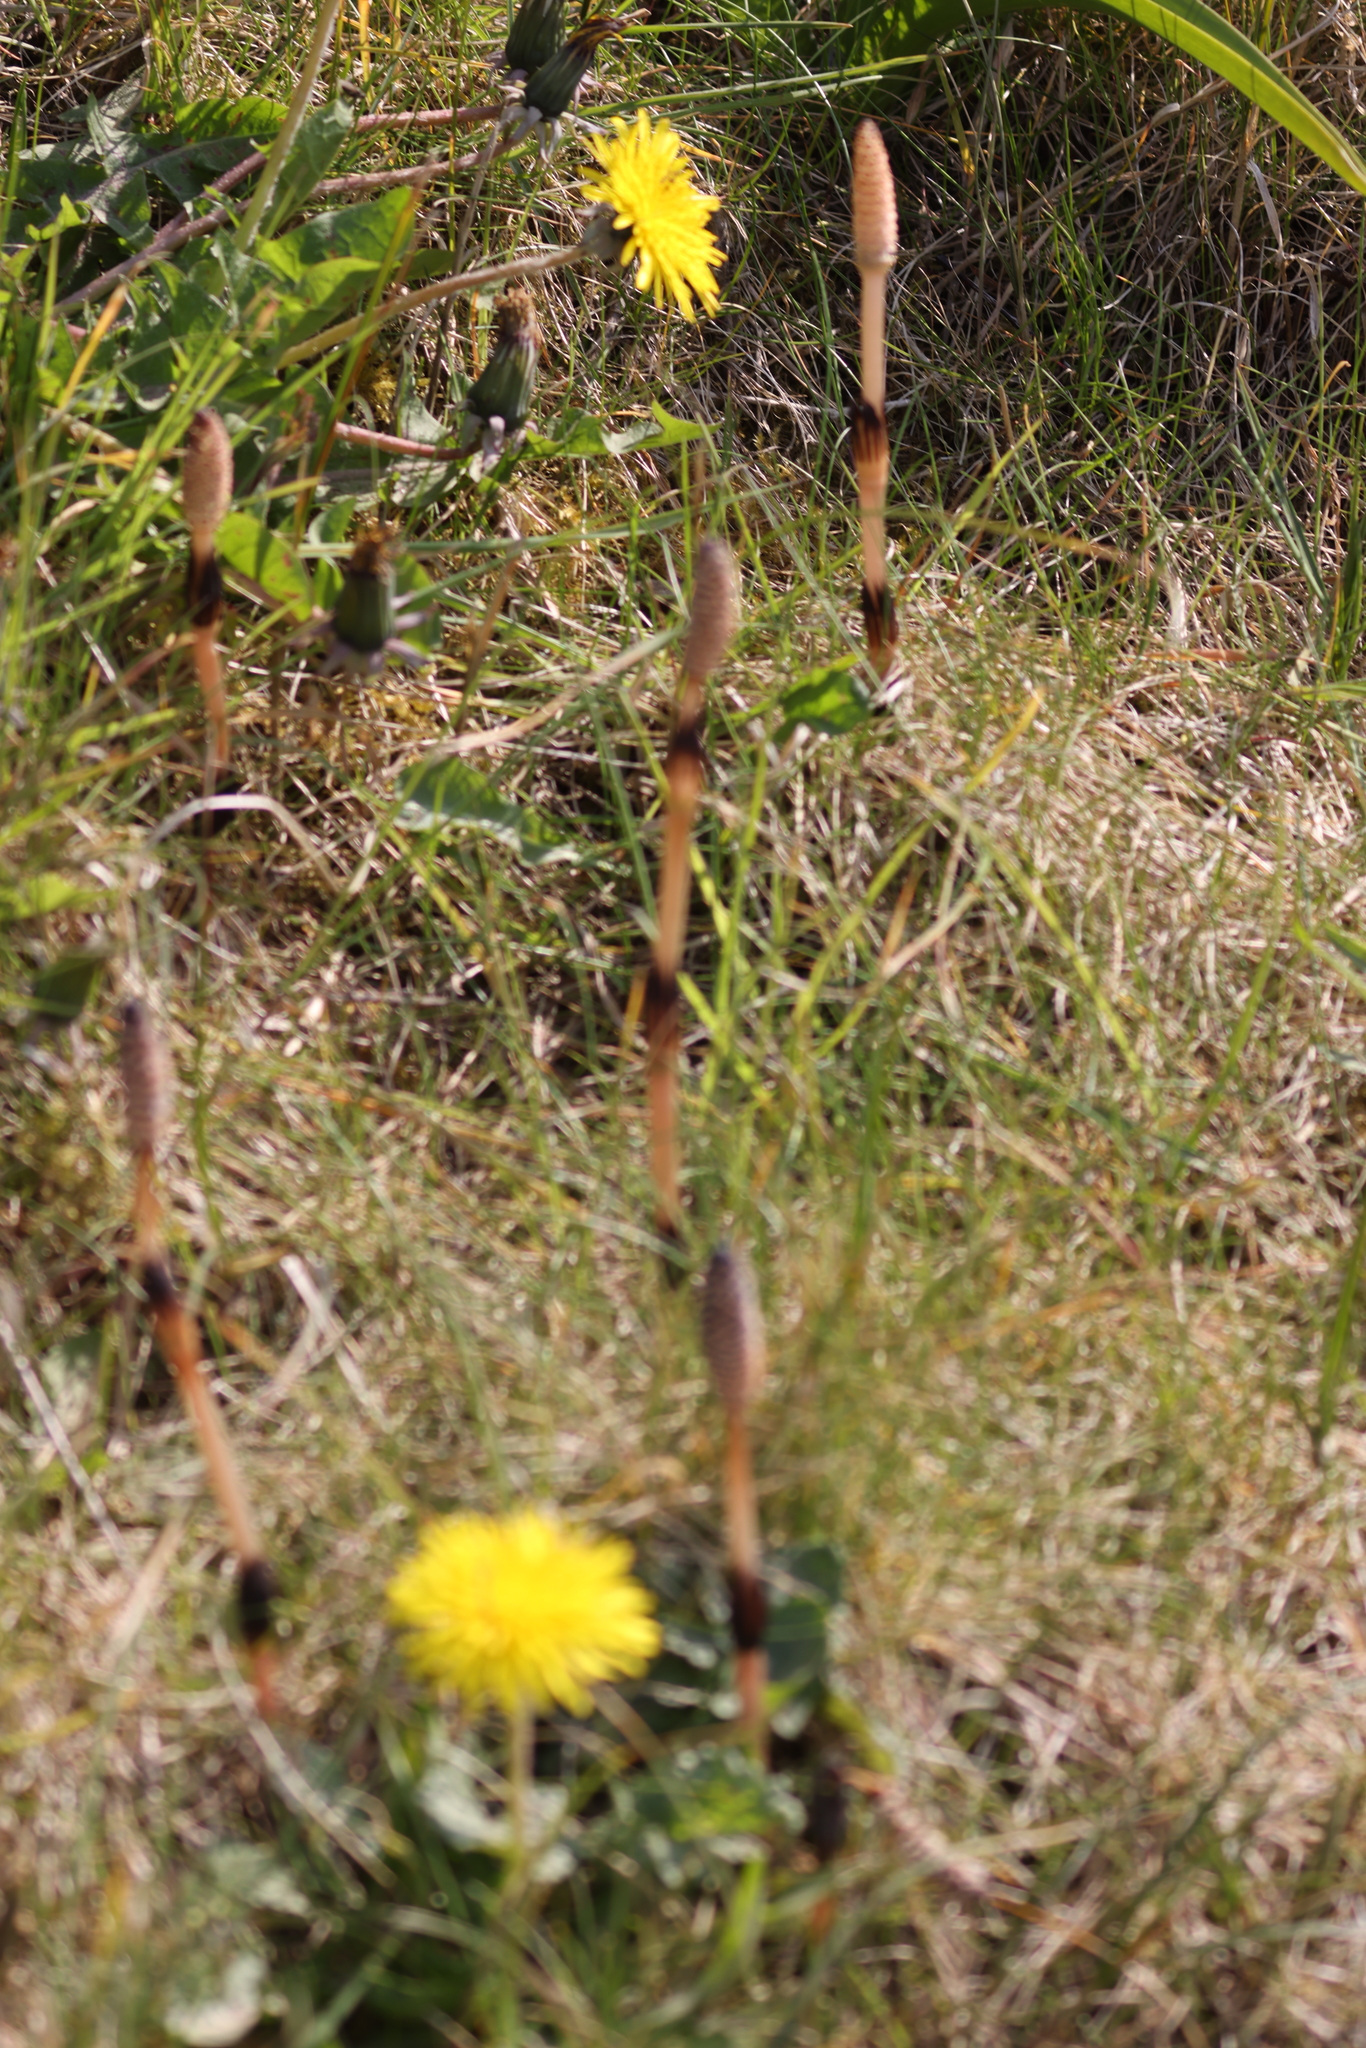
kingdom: Plantae
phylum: Tracheophyta
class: Polypodiopsida
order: Equisetales
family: Equisetaceae
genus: Equisetum
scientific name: Equisetum arvense
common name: Field horsetail
